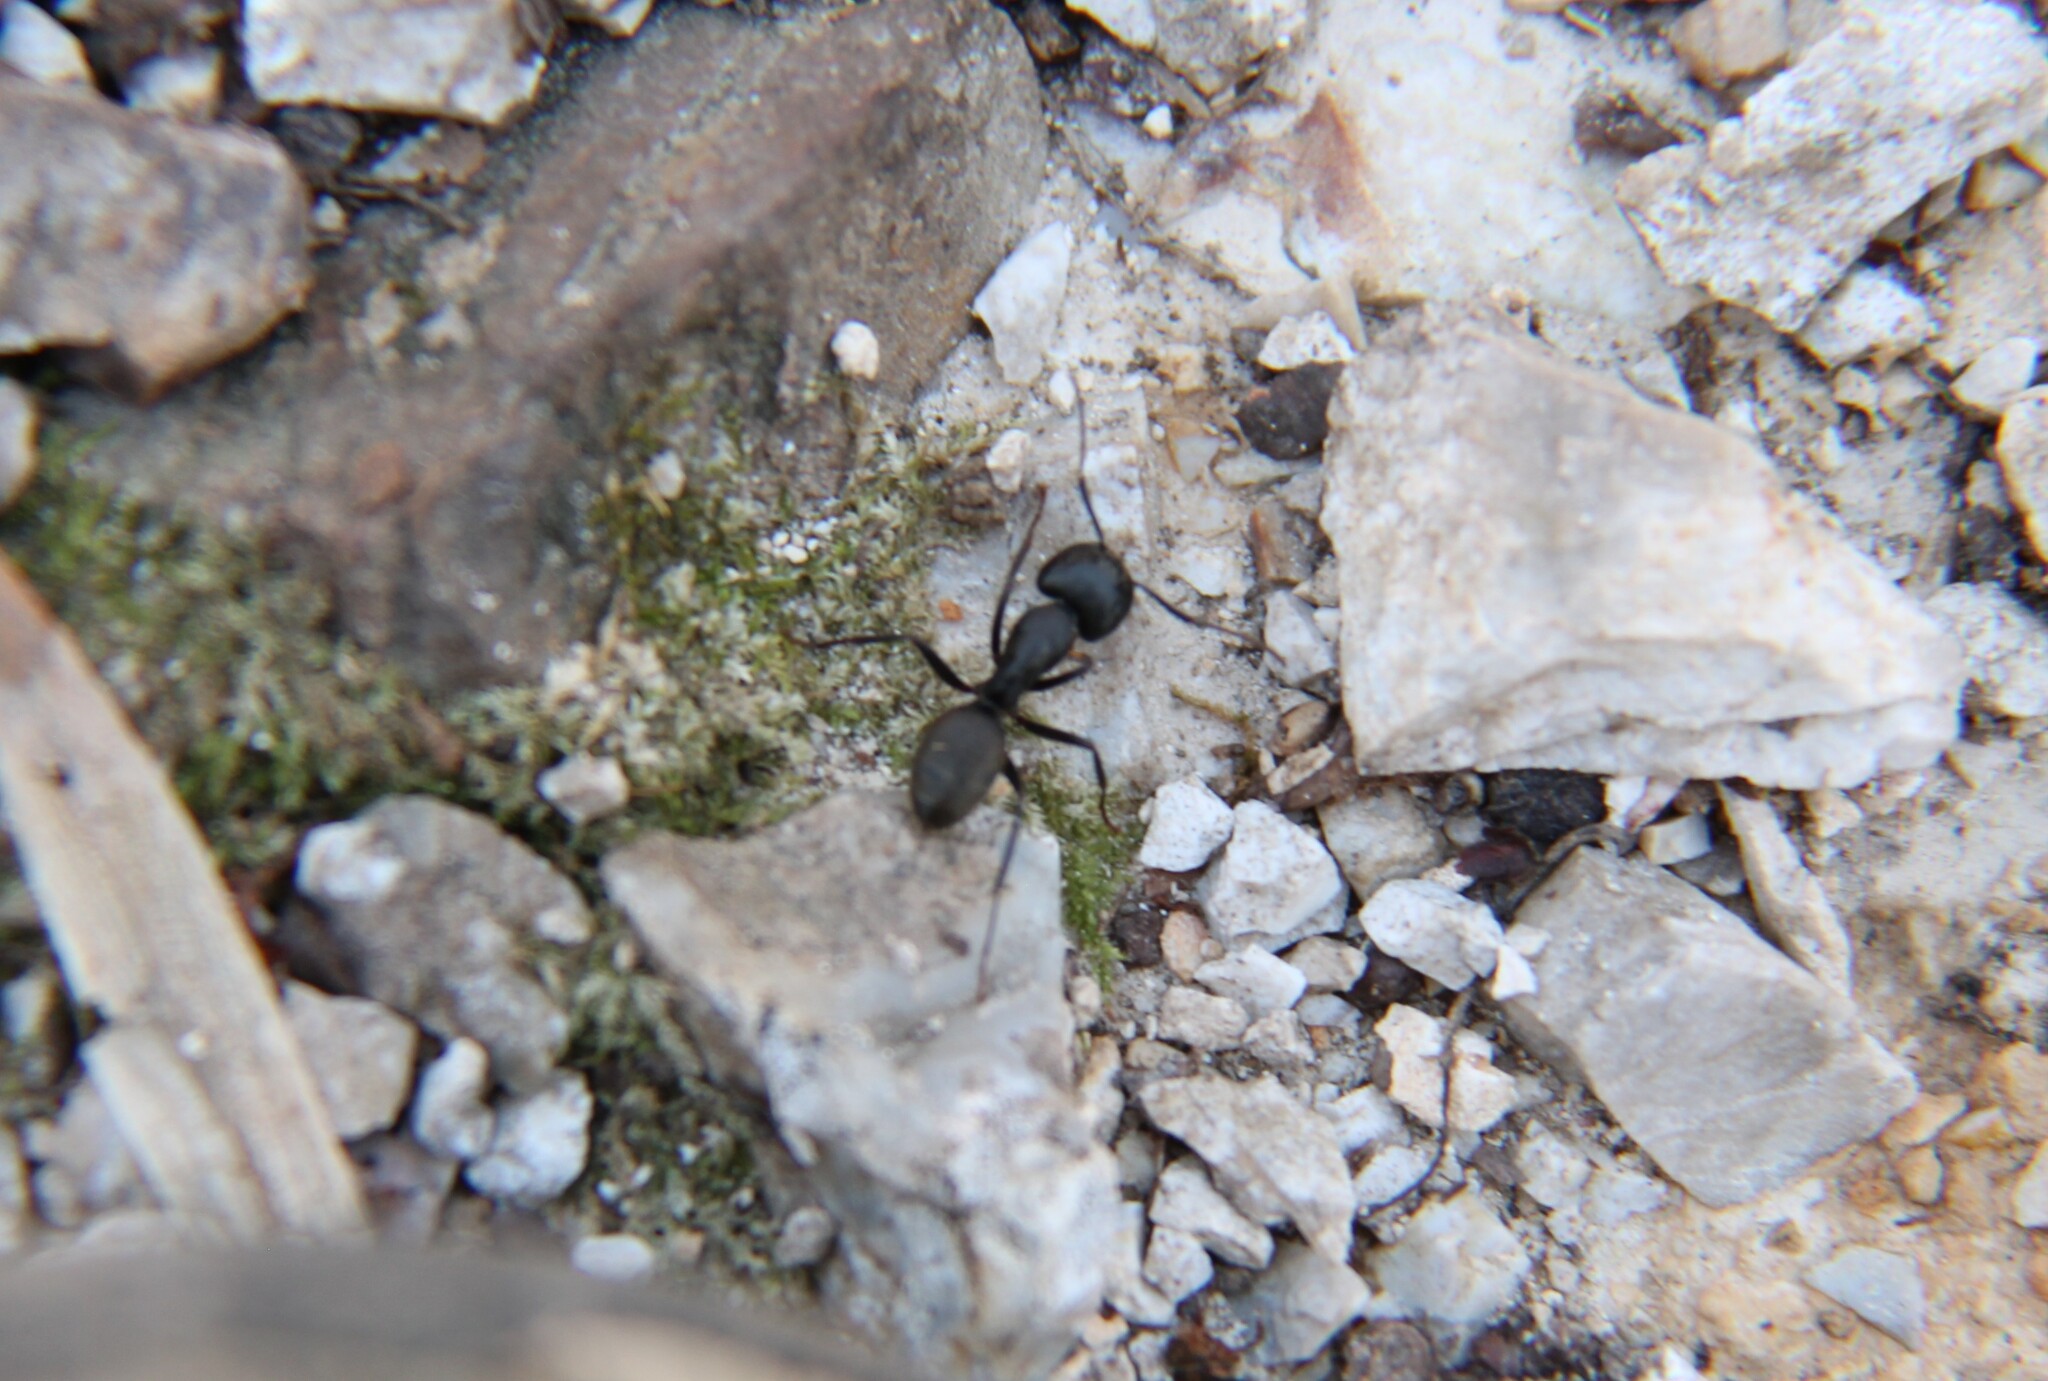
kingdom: Animalia
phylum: Arthropoda
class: Insecta
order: Hymenoptera
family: Formicidae
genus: Camponotus
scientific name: Camponotus pennsylvanicus
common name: Black carpenter ant
